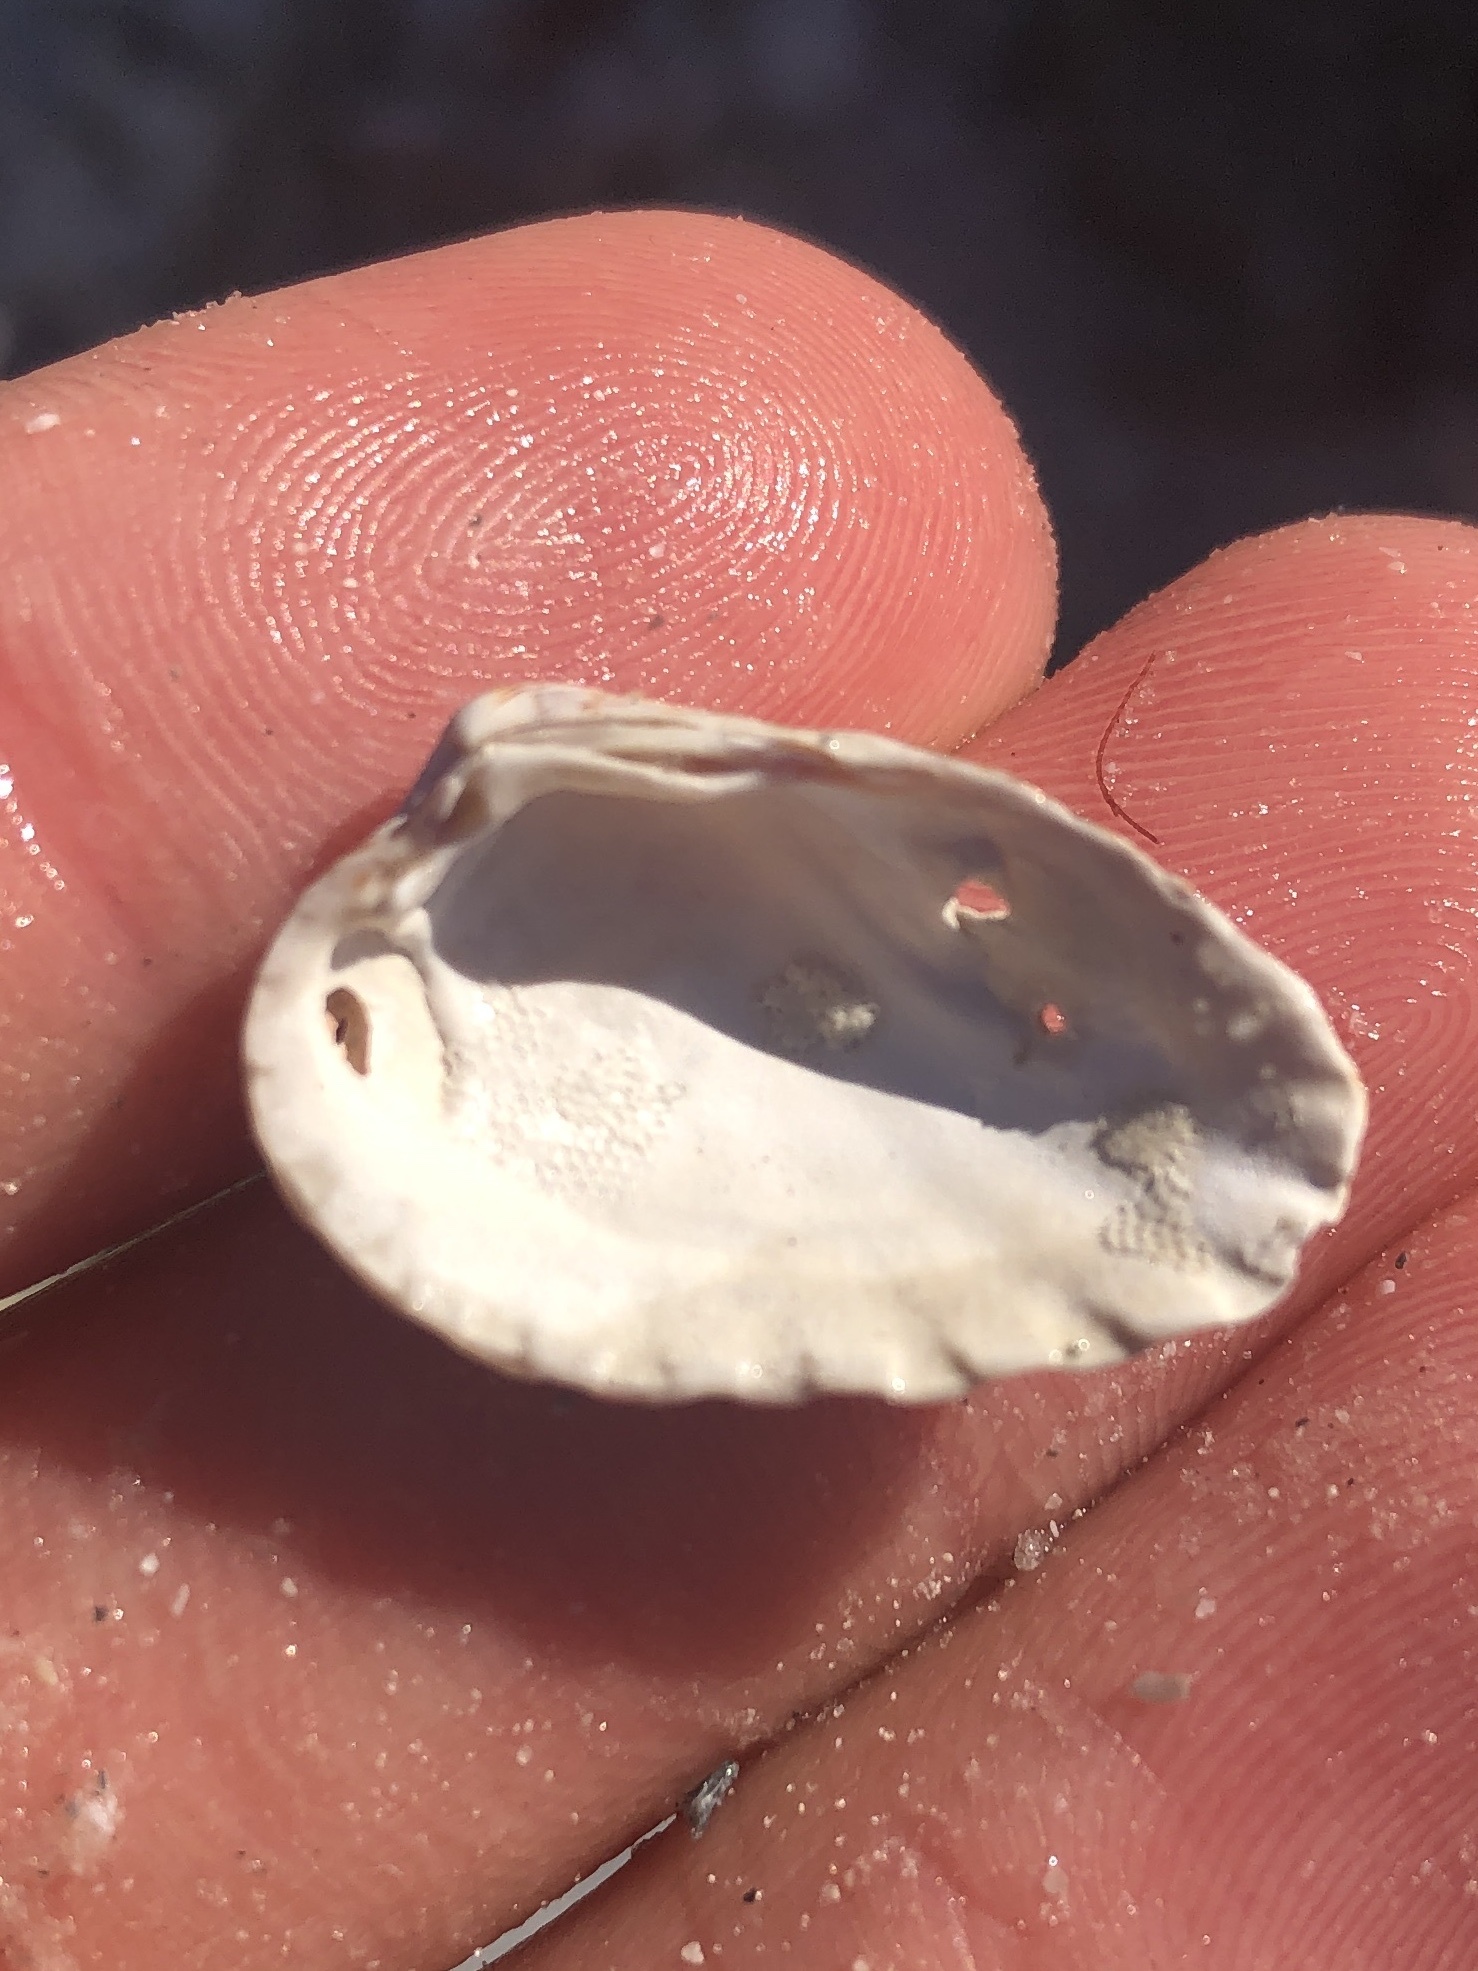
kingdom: Animalia
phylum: Mollusca
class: Bivalvia
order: Carditida
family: Carditidae
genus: Cardites
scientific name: Cardites floridanus
